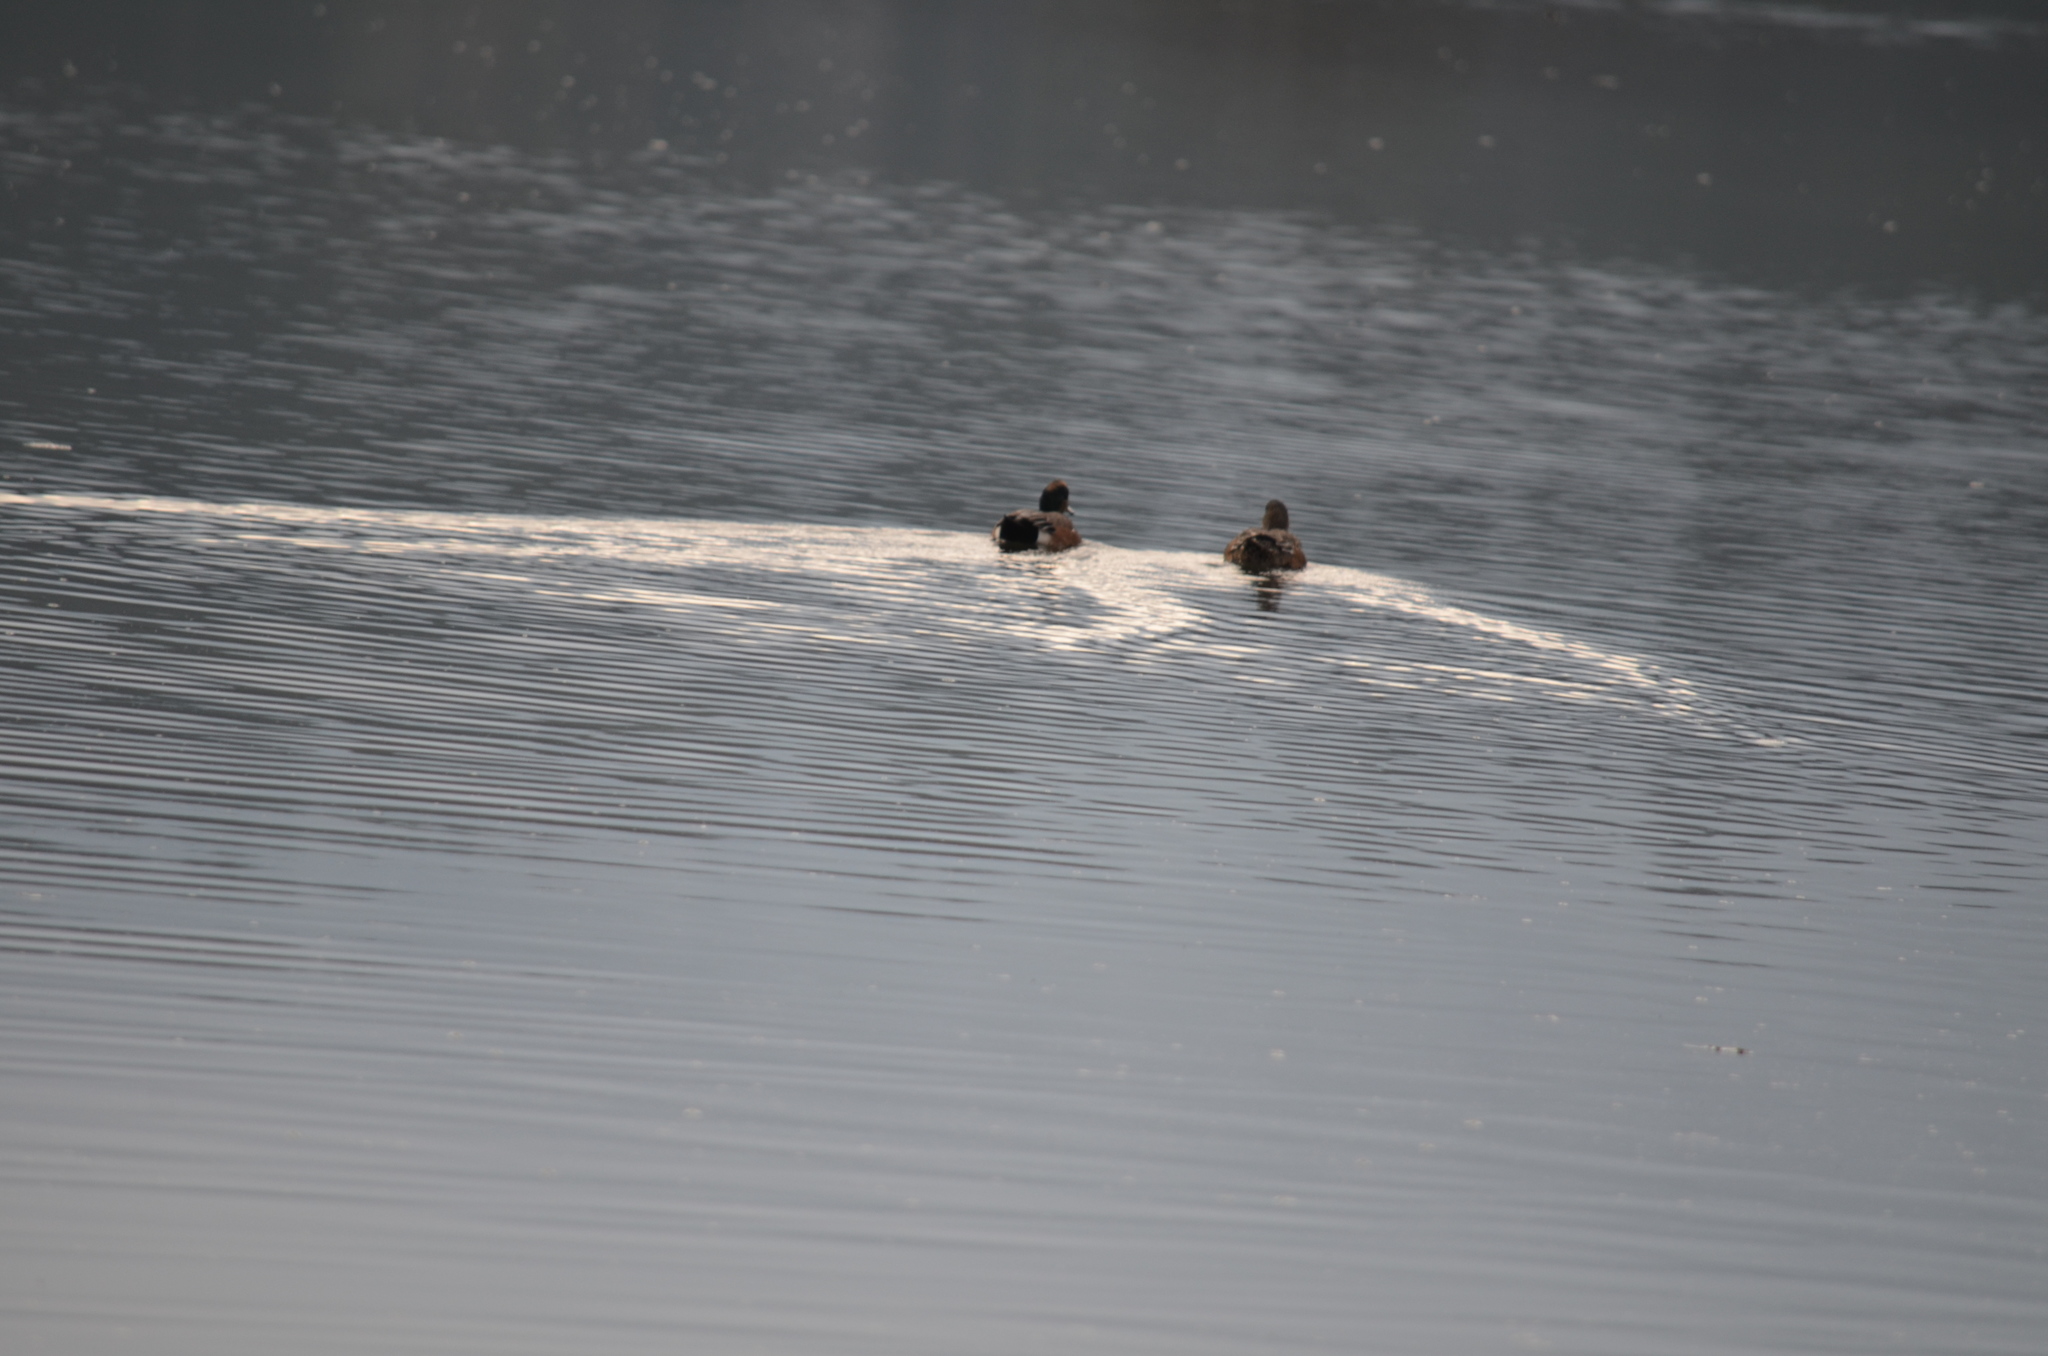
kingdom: Animalia
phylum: Chordata
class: Aves
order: Anseriformes
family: Anatidae
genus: Mareca
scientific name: Mareca americana
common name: American wigeon
